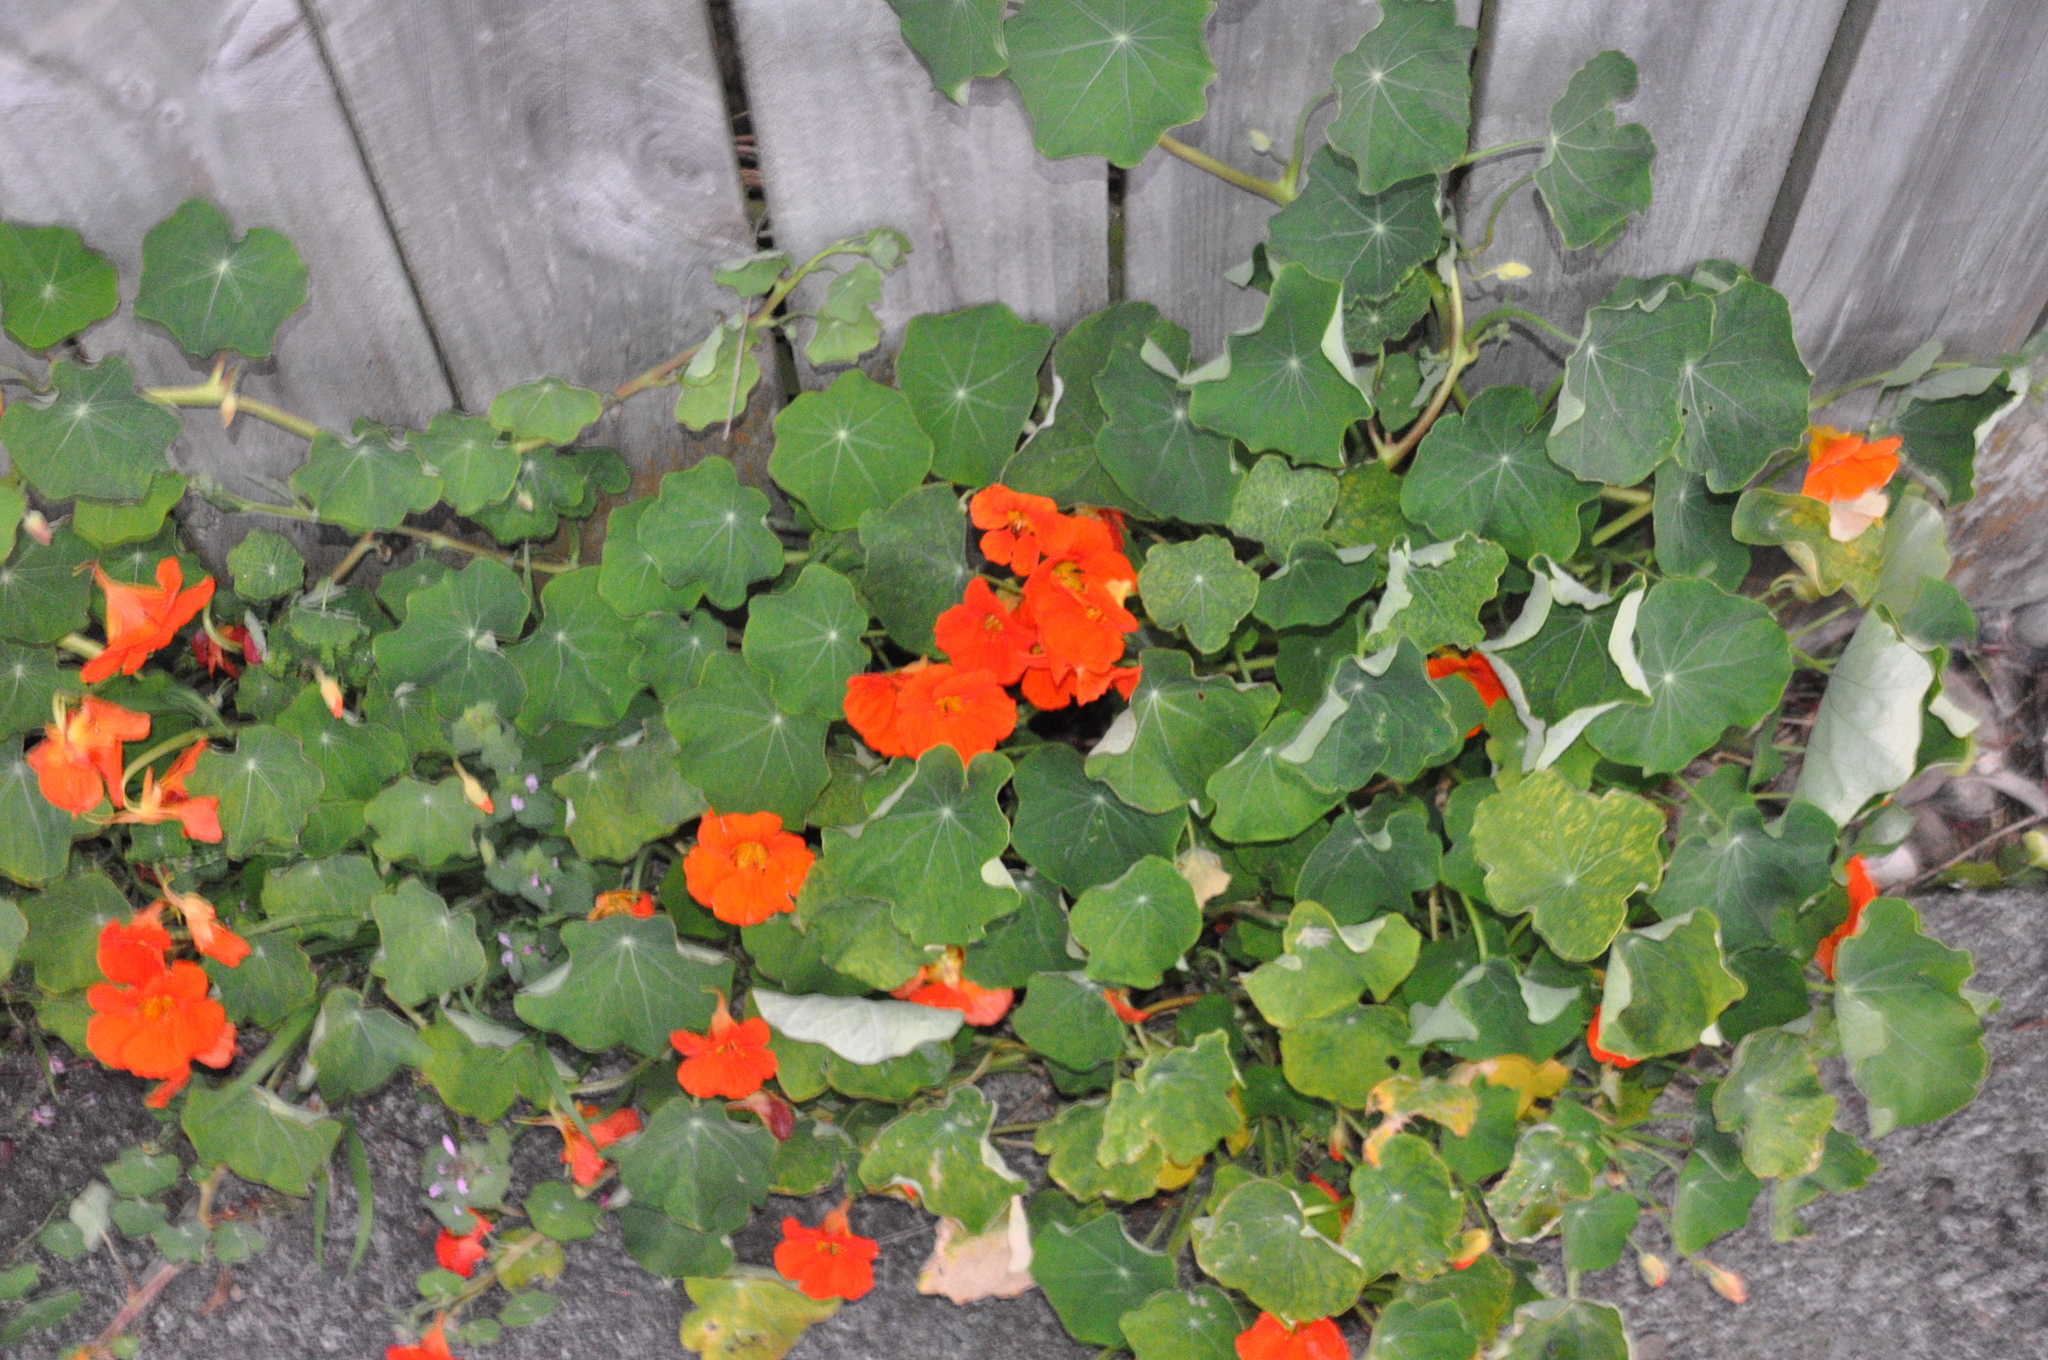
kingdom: Plantae
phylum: Tracheophyta
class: Magnoliopsida
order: Brassicales
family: Tropaeolaceae
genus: Tropaeolum
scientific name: Tropaeolum majus
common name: Nasturtium
